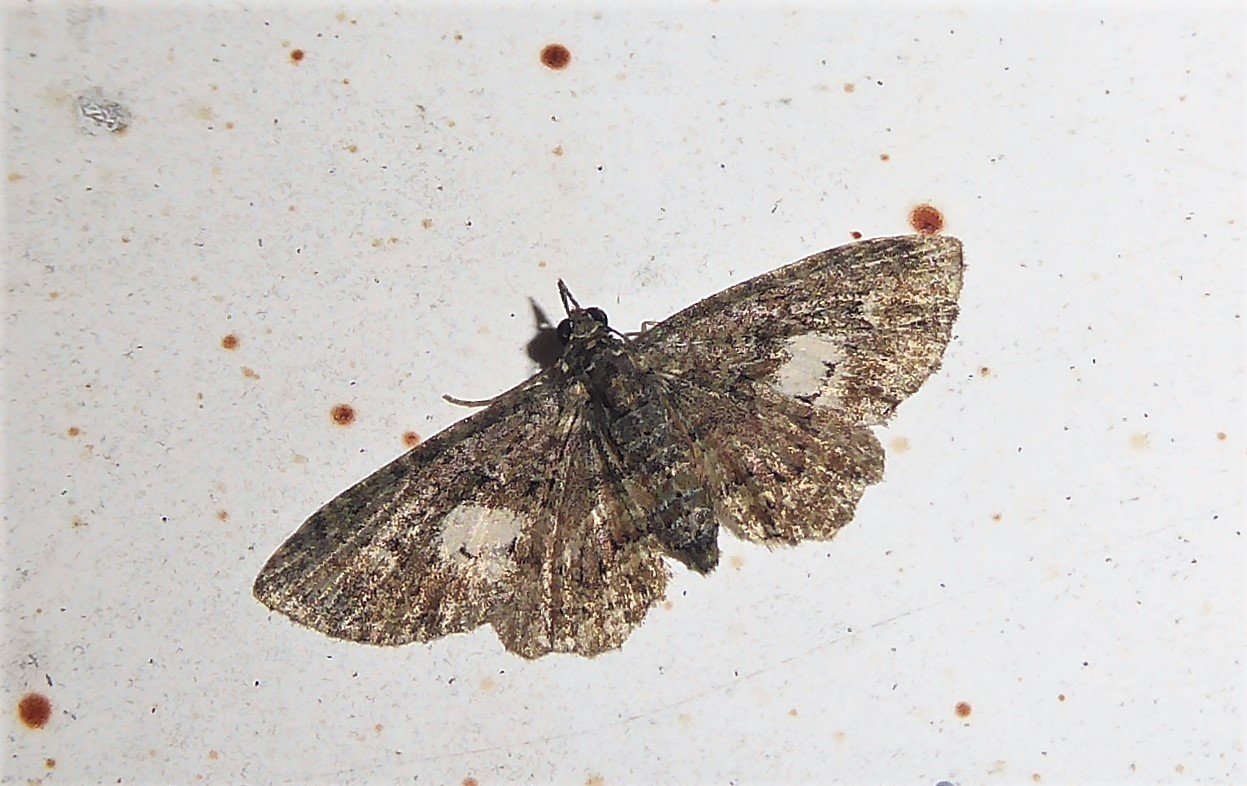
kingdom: Animalia
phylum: Arthropoda
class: Insecta
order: Lepidoptera
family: Geometridae
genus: Pasiphilodes
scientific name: Pasiphilodes testulata
